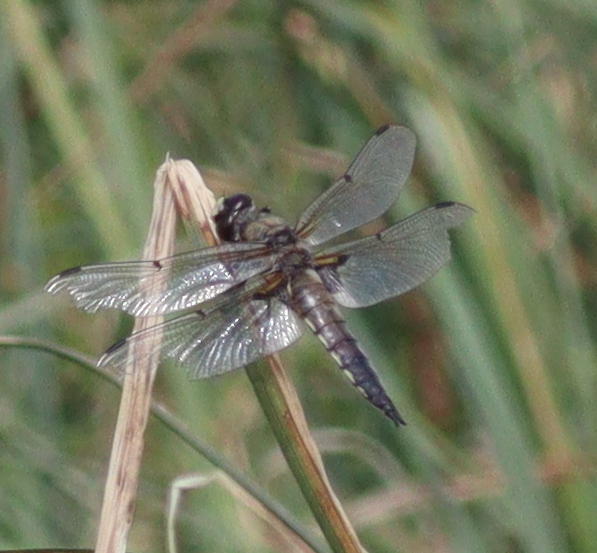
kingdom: Animalia
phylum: Arthropoda
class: Insecta
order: Odonata
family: Libellulidae
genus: Libellula
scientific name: Libellula quadrimaculata
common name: Four-spotted chaser
